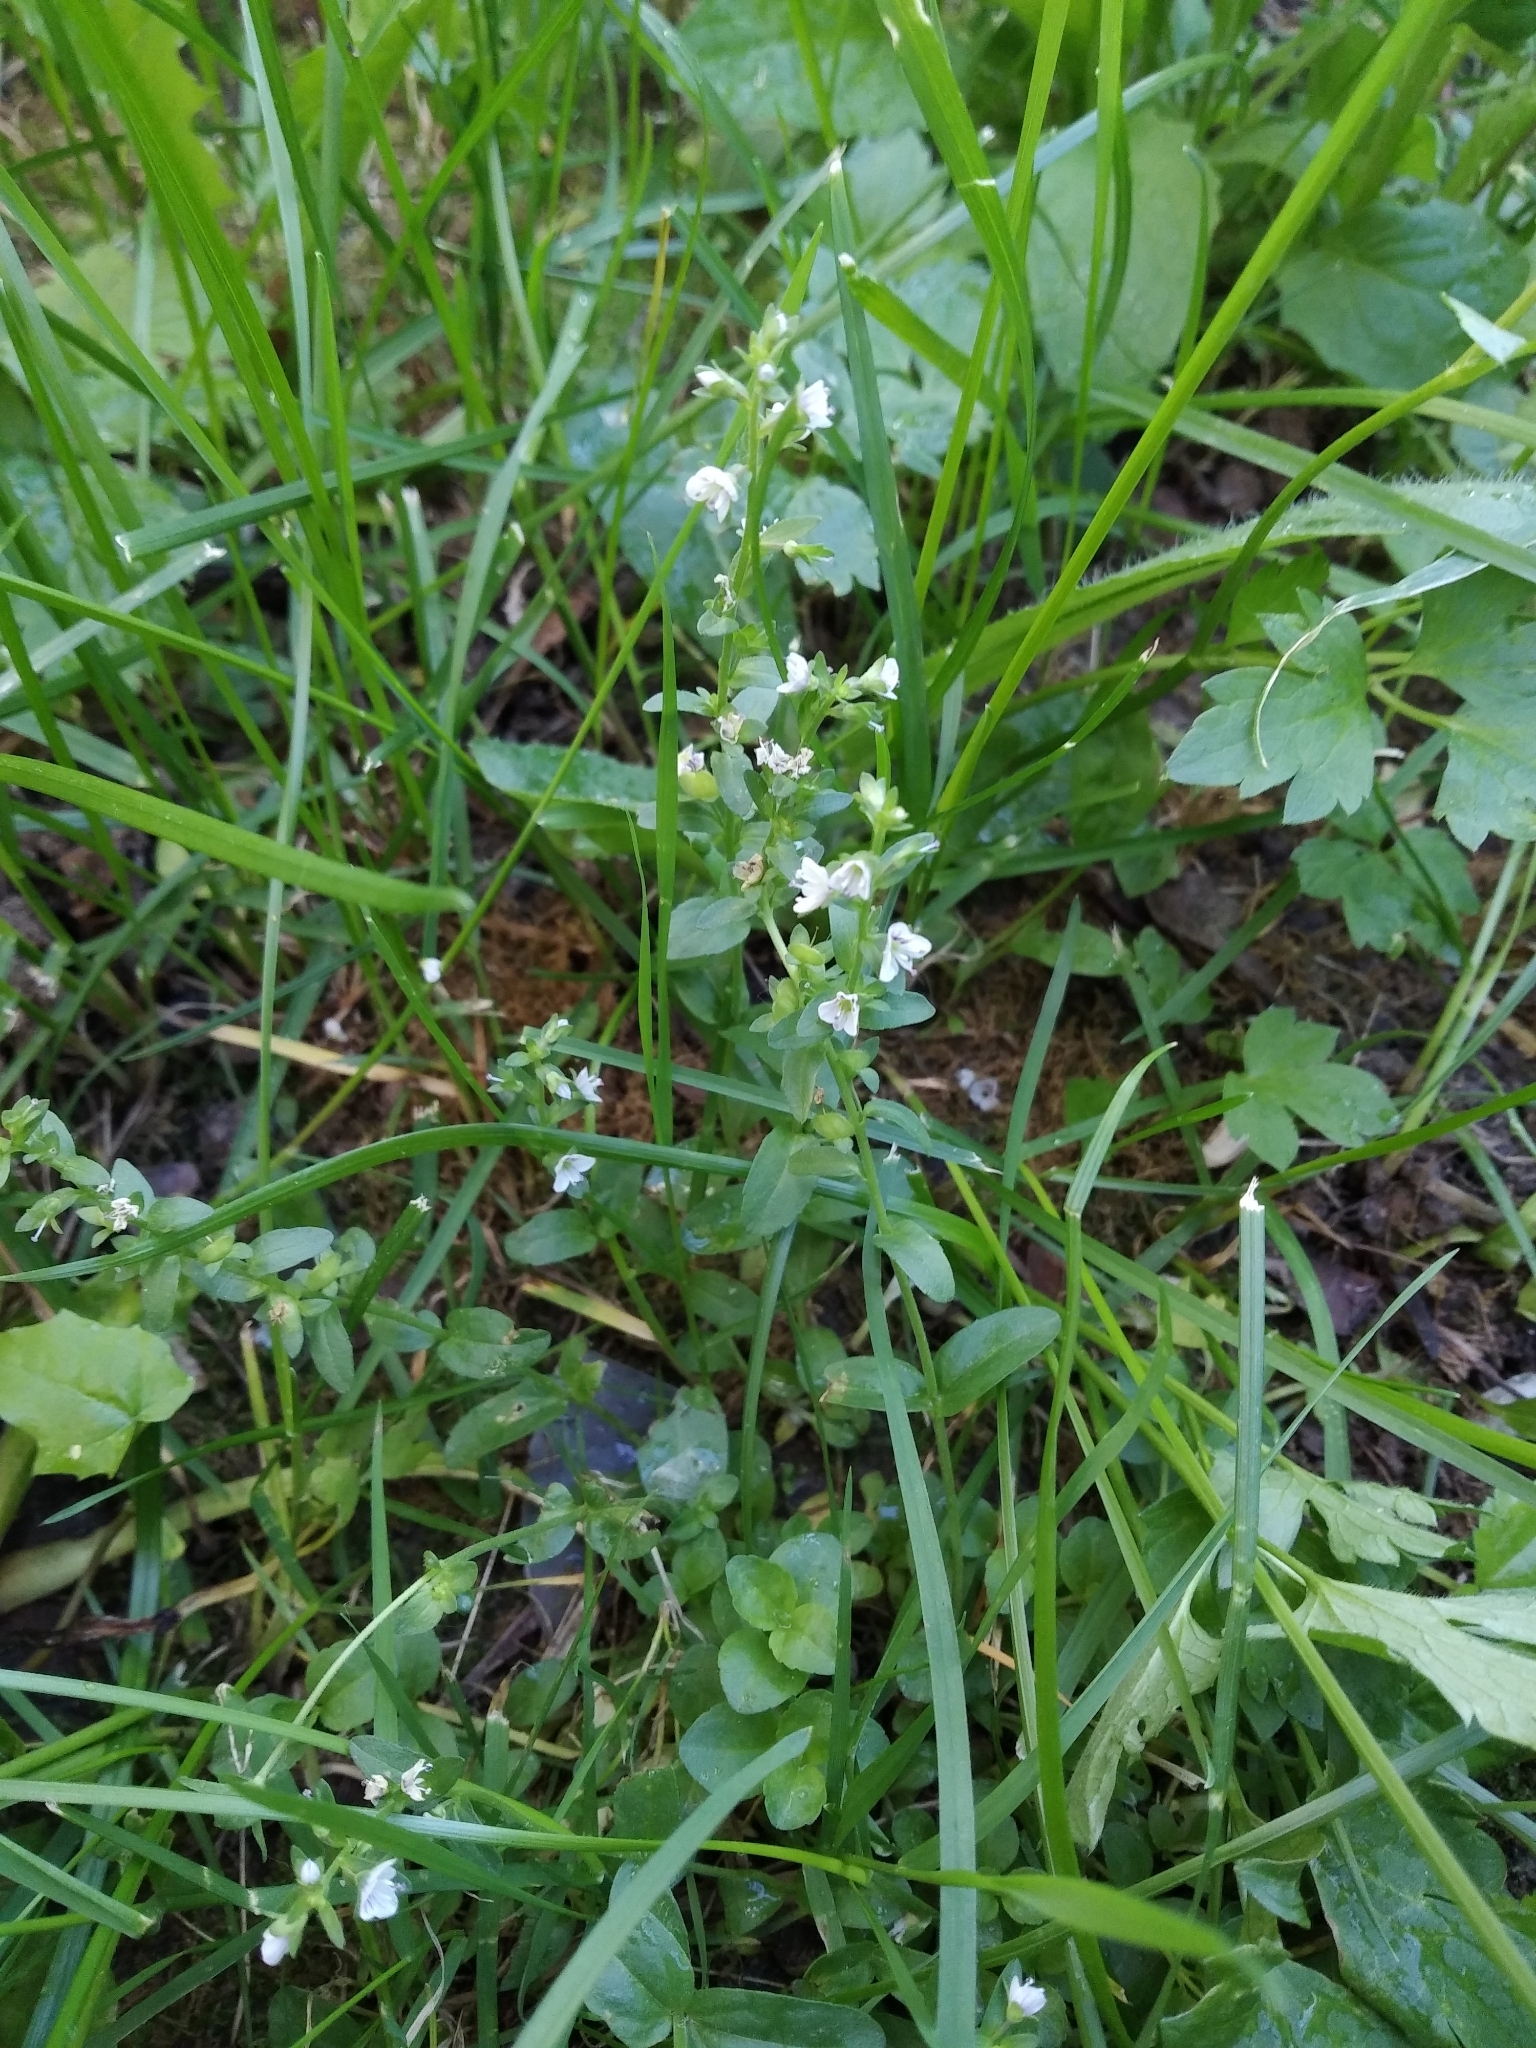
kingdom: Plantae
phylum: Tracheophyta
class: Magnoliopsida
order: Lamiales
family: Plantaginaceae
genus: Veronica
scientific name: Veronica serpyllifolia
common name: Thyme-leaved speedwell
